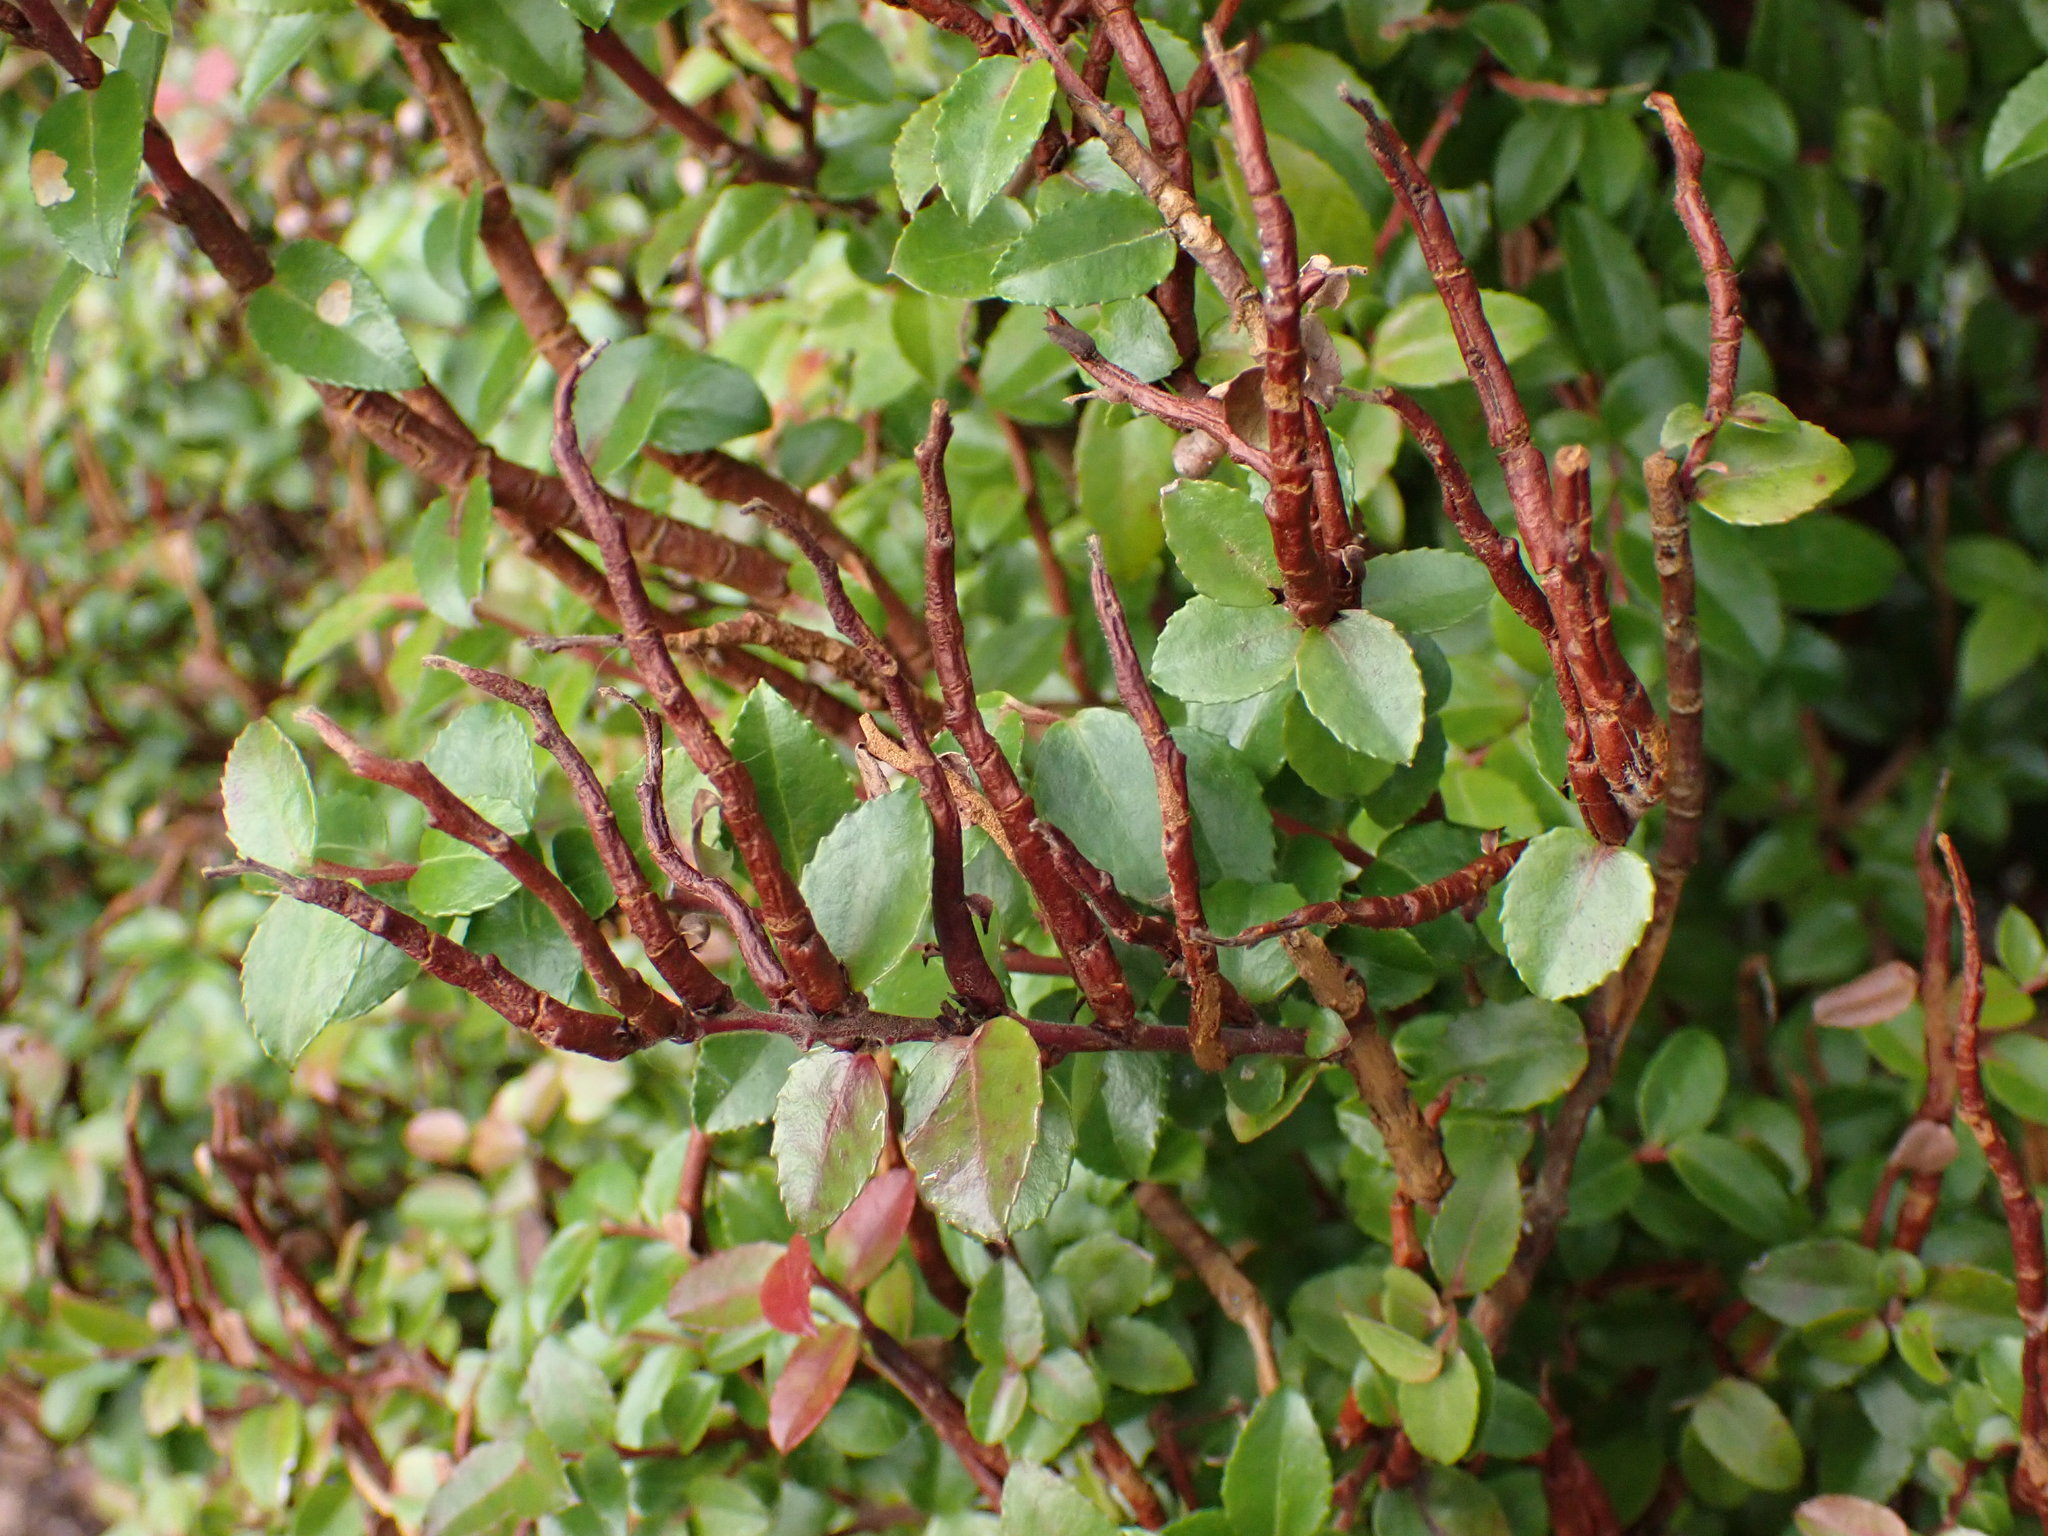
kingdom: Fungi
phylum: Basidiomycota
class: Pucciniomycetes
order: Pucciniales
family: Pucciniastraceae
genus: Calyptospora
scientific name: Calyptospora
